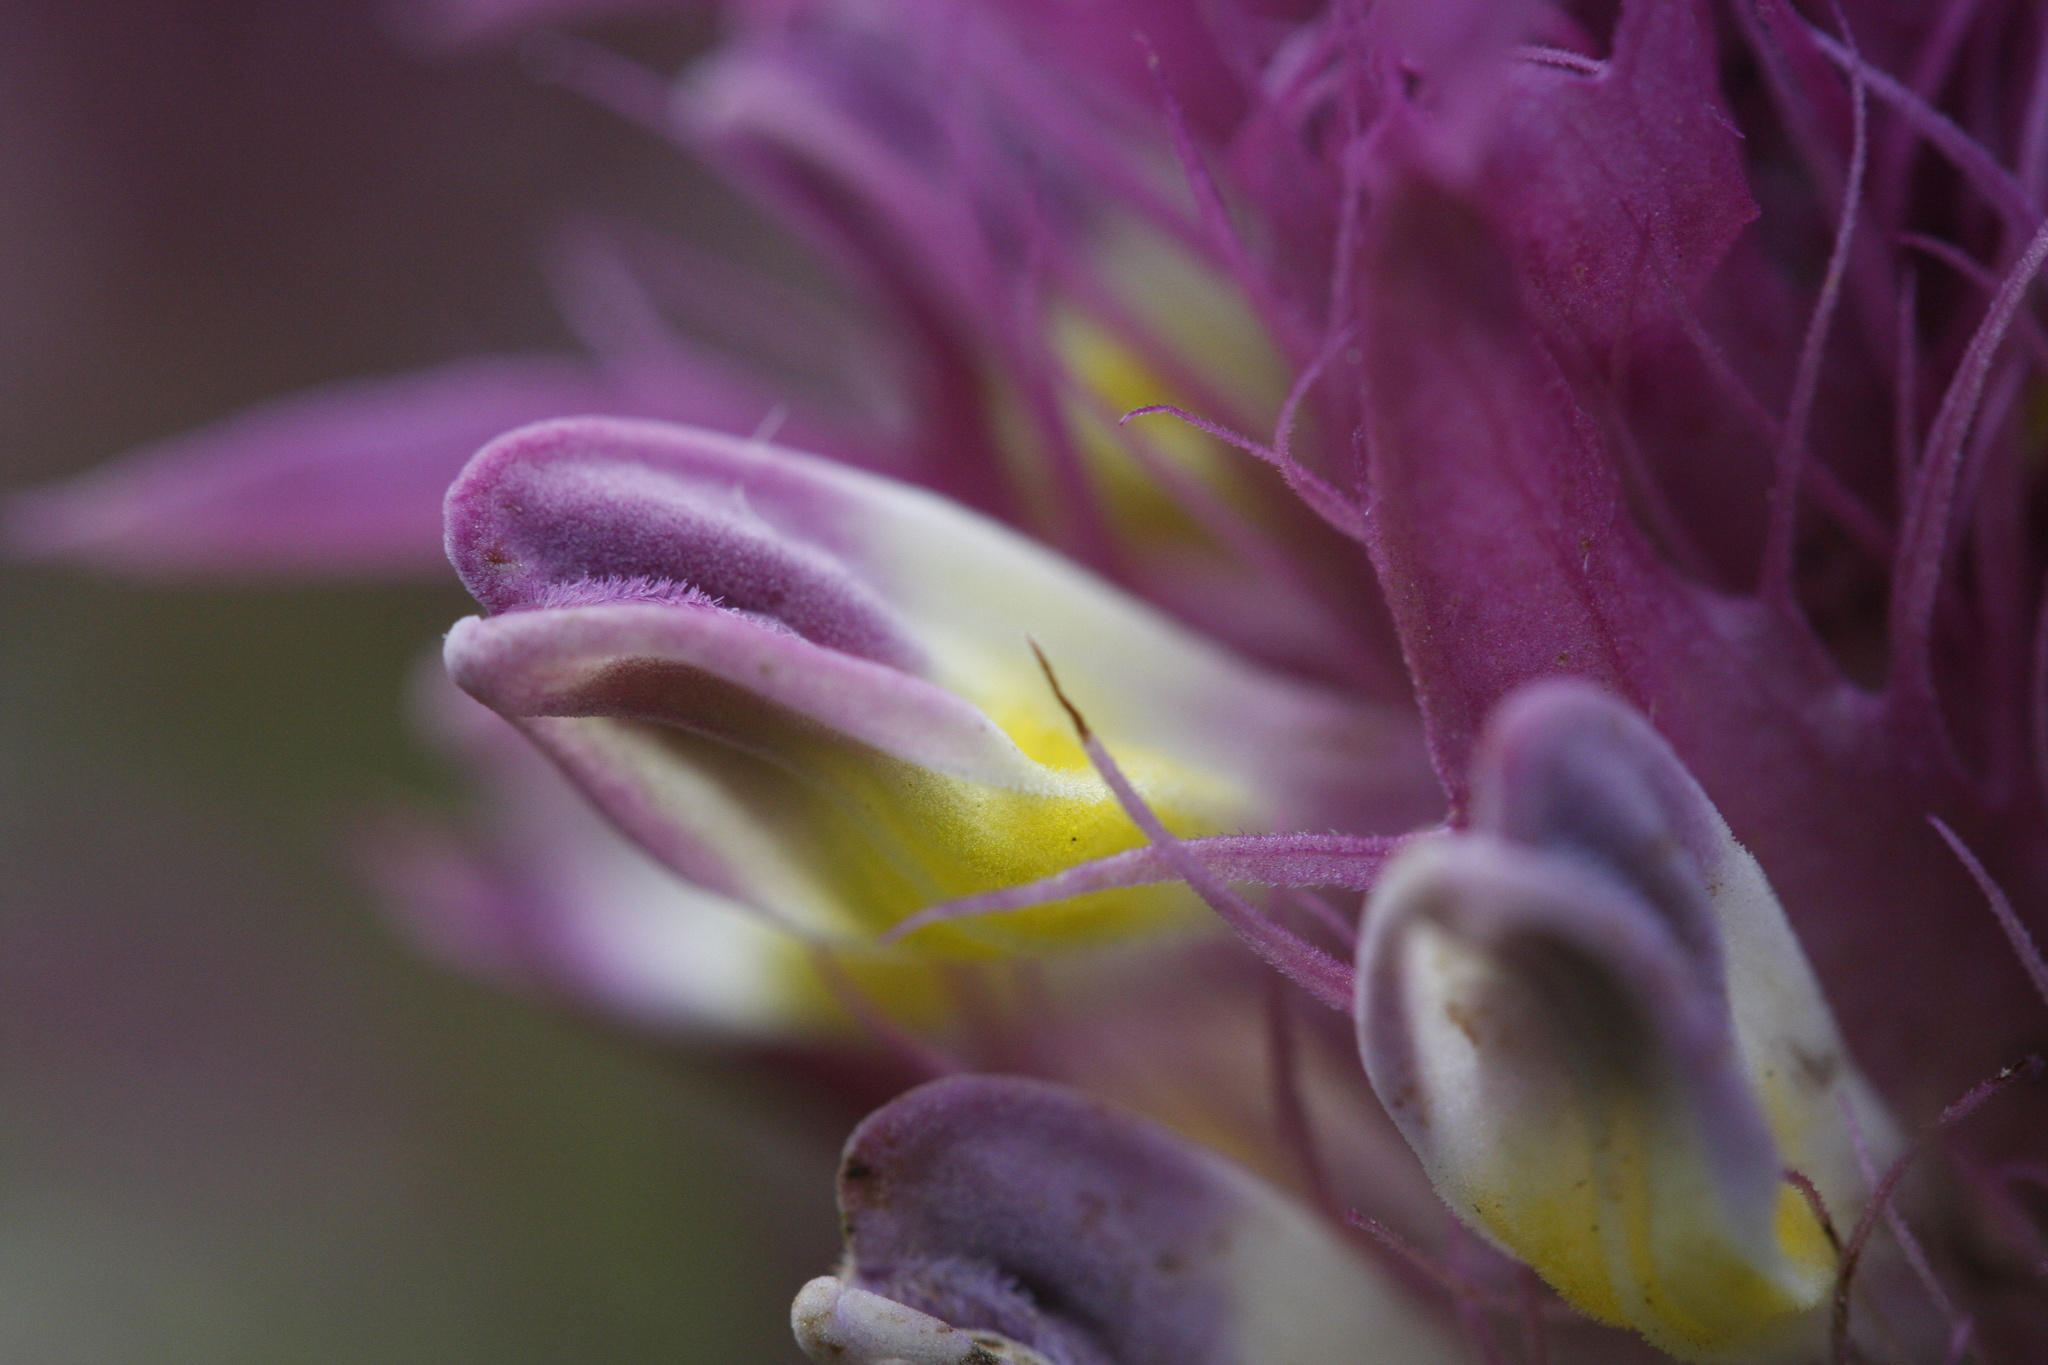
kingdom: Plantae
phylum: Tracheophyta
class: Magnoliopsida
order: Lamiales
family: Orobanchaceae
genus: Melampyrum
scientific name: Melampyrum arvense
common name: Field cow-wheat
